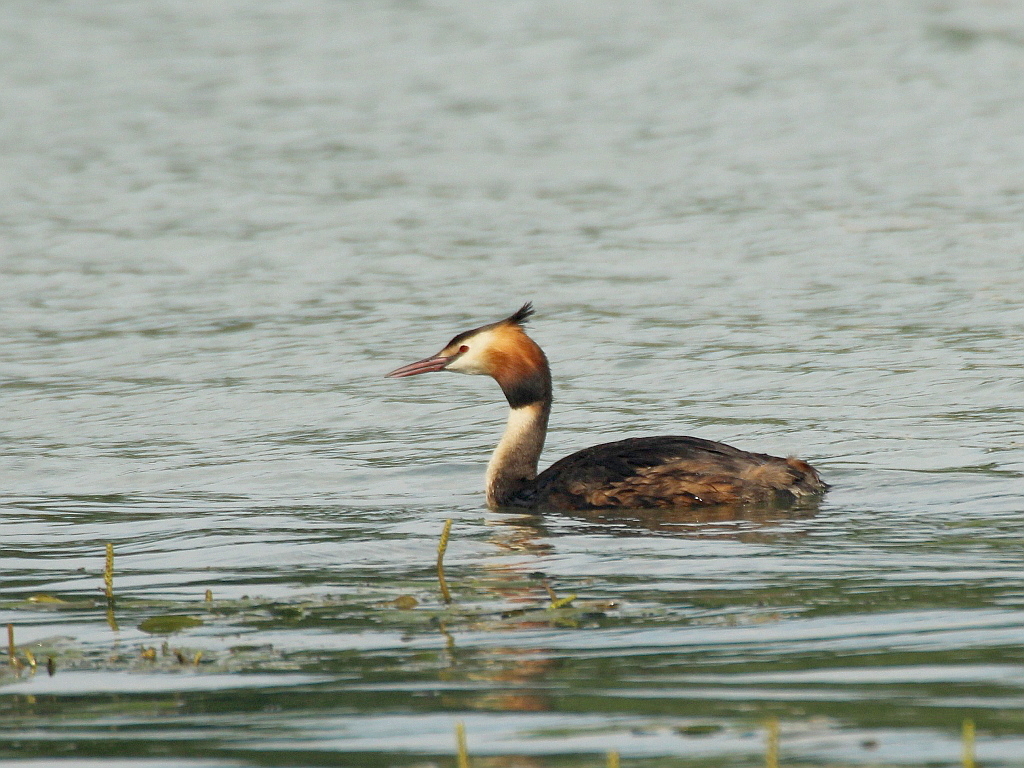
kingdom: Animalia
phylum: Chordata
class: Aves
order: Podicipediformes
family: Podicipedidae
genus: Podiceps
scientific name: Podiceps cristatus
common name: Great crested grebe
